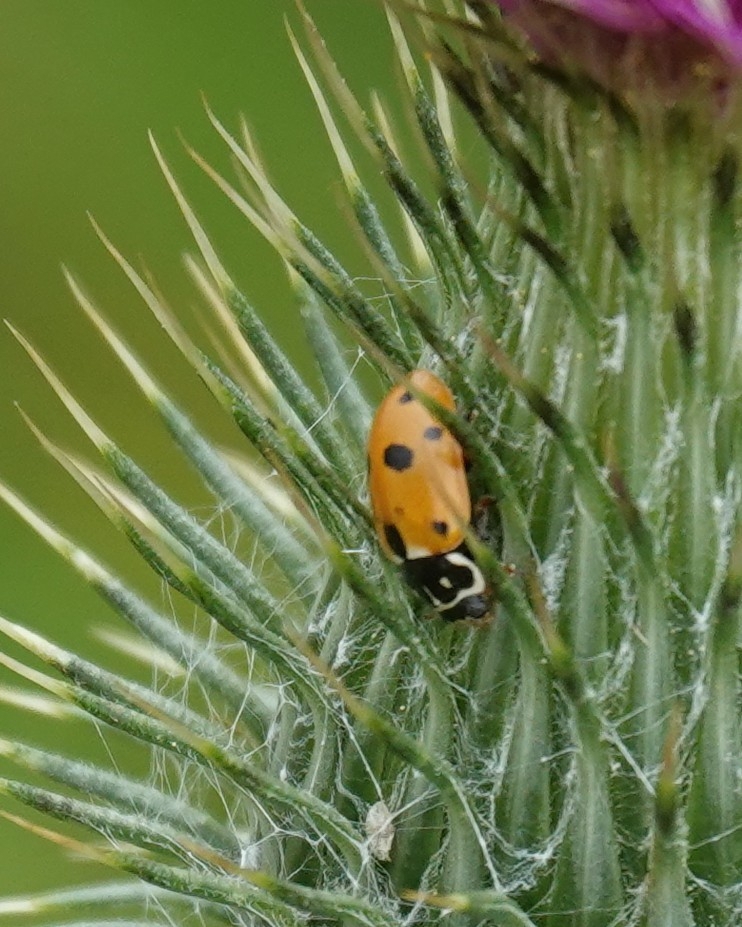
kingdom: Animalia
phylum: Arthropoda
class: Insecta
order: Coleoptera
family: Coccinellidae
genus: Hippodamia
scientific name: Hippodamia variegata
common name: Ladybird beetle
